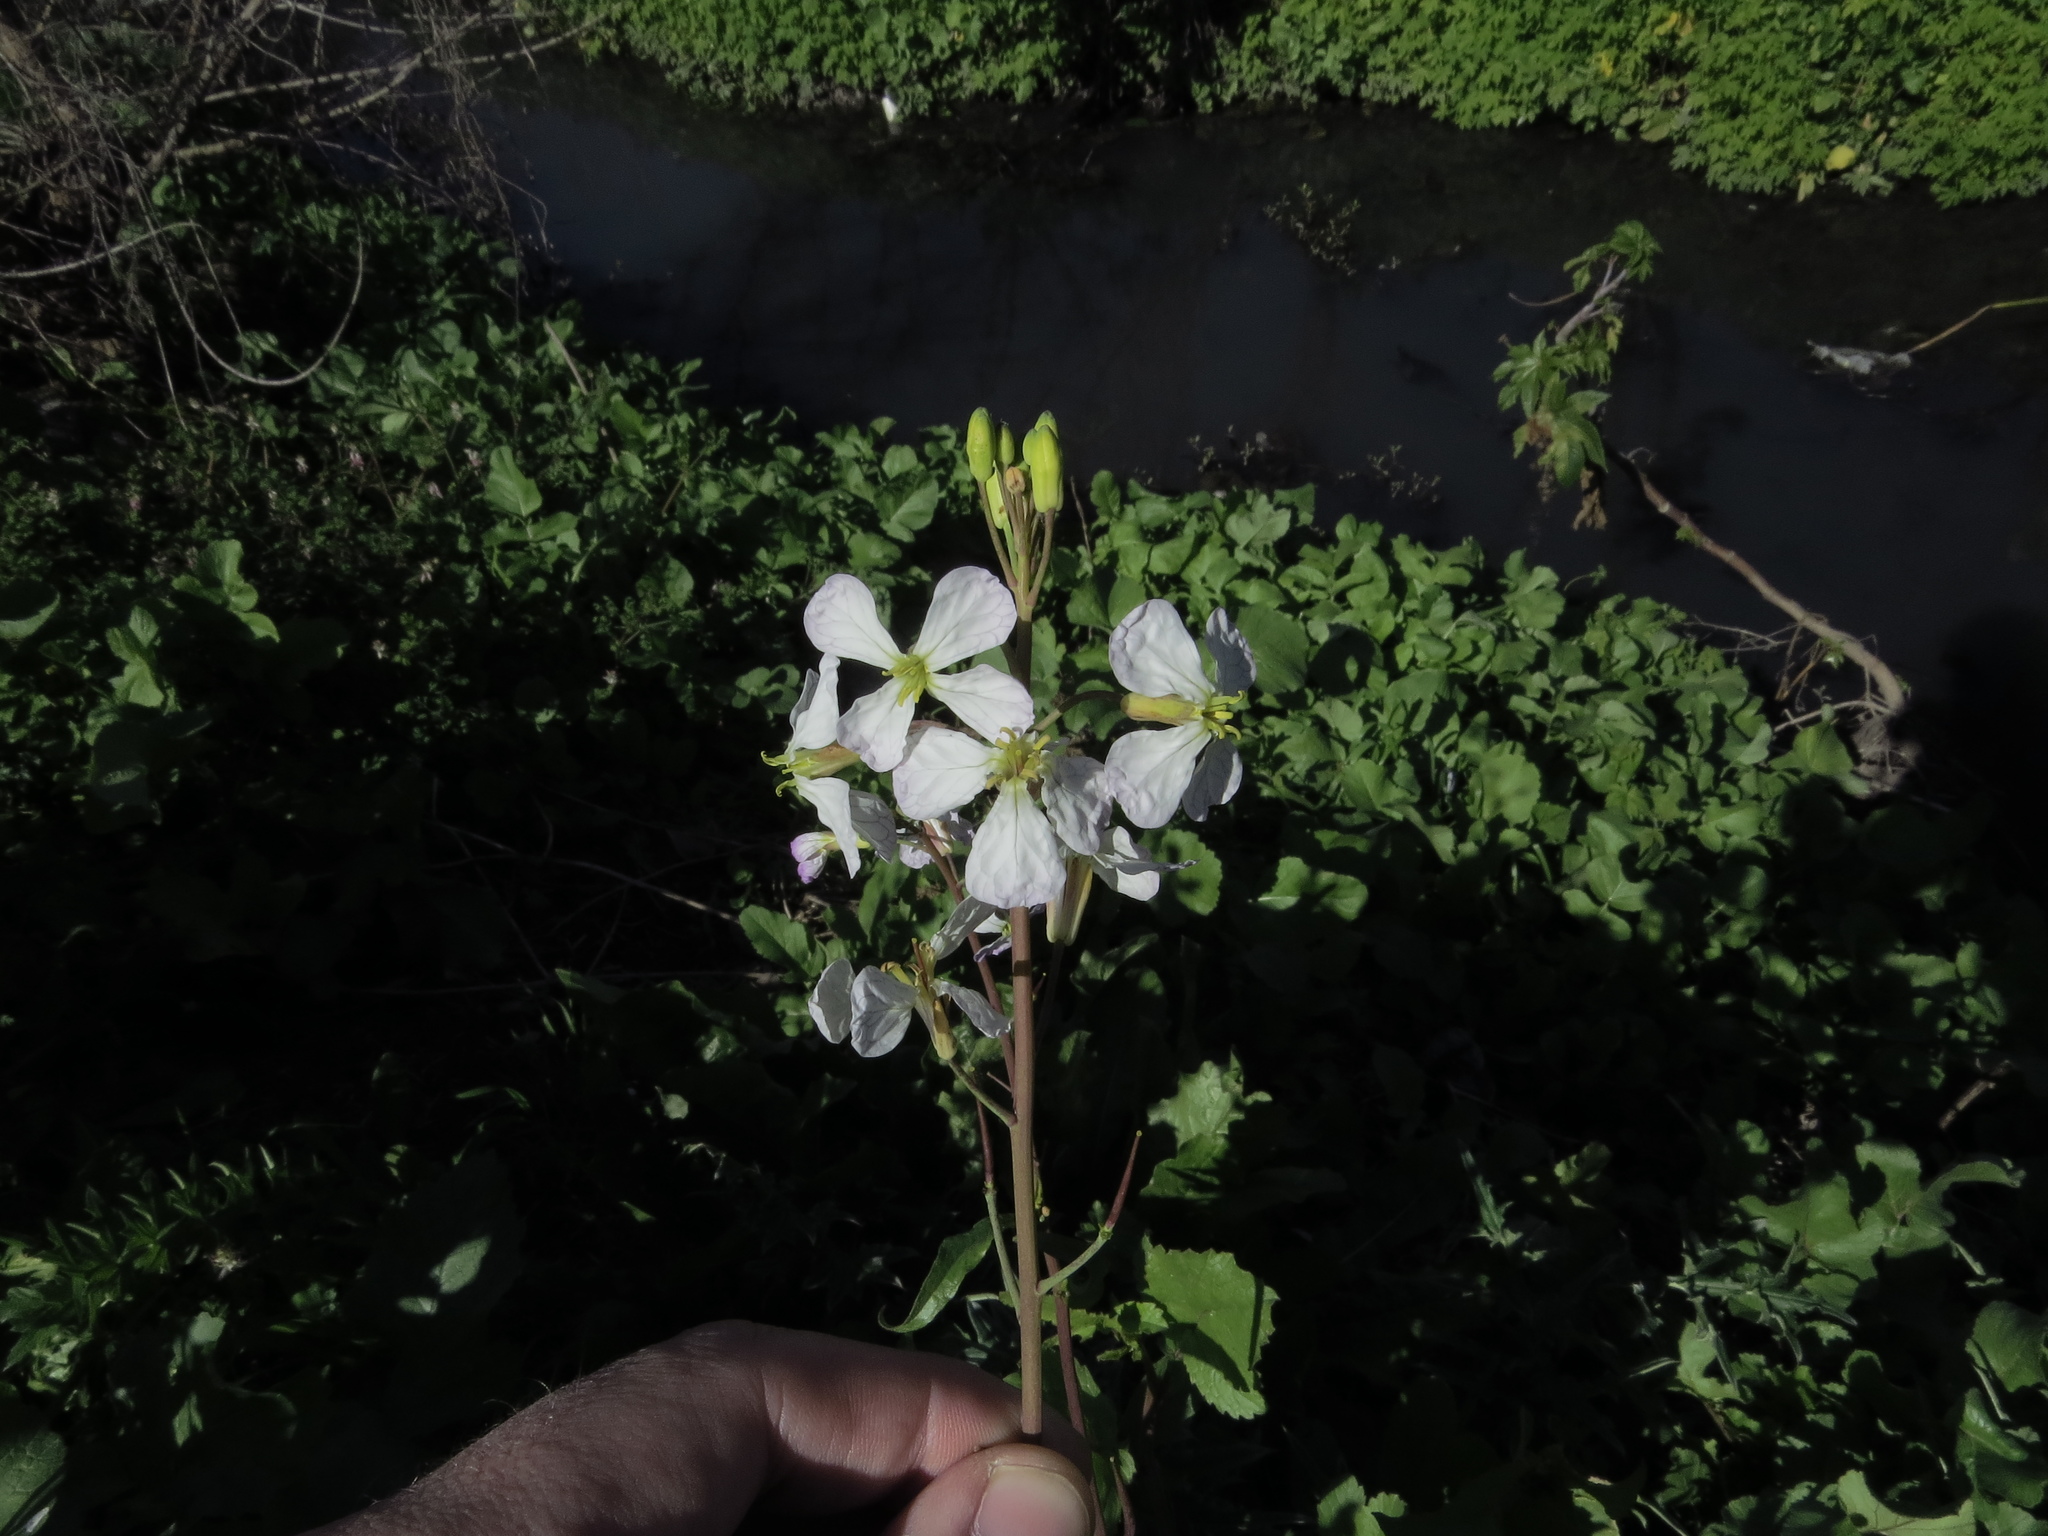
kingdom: Plantae
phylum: Tracheophyta
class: Magnoliopsida
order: Brassicales
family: Brassicaceae
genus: Raphanus
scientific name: Raphanus sativus
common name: Cultivated radish
